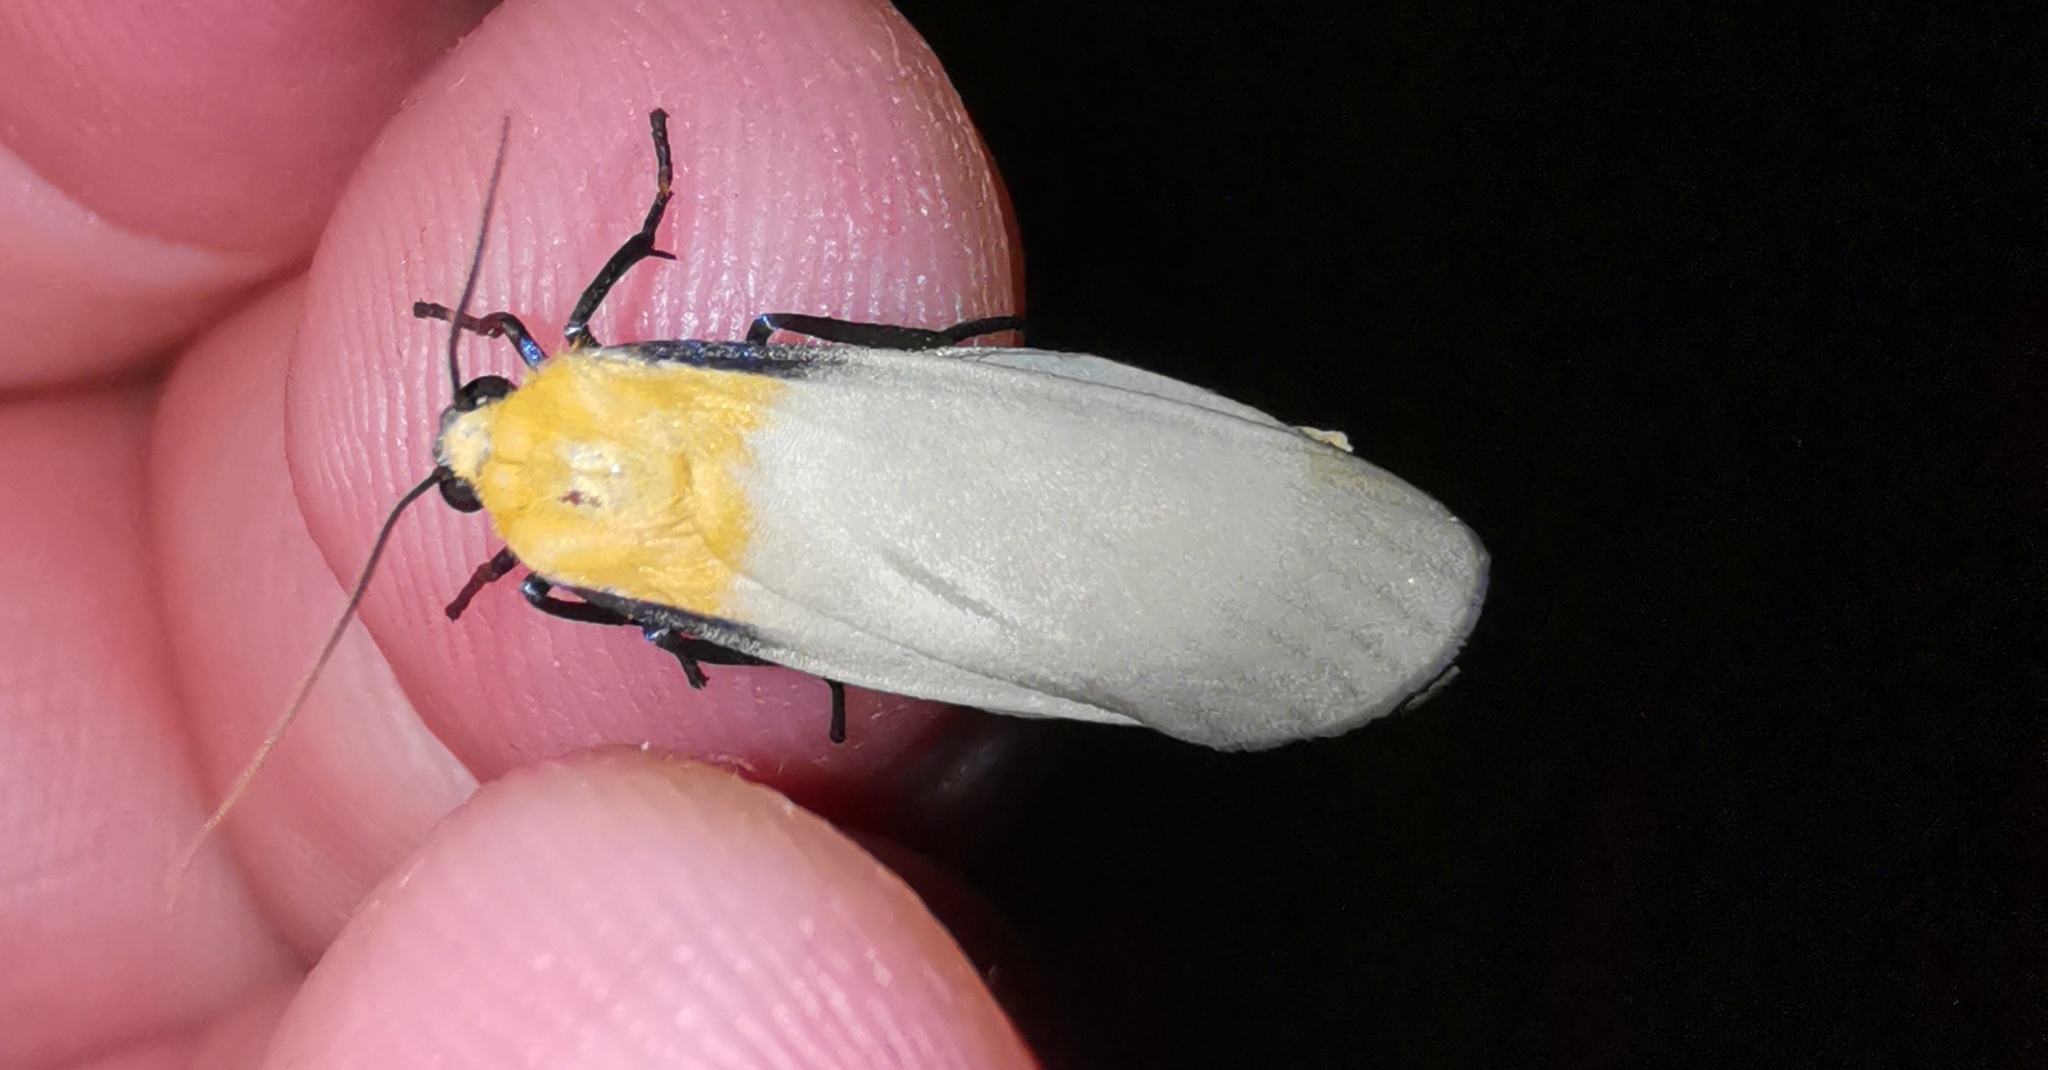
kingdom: Animalia
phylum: Arthropoda
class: Insecta
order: Lepidoptera
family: Erebidae
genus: Lithosia
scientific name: Lithosia quadra
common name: Four-spotted footman
